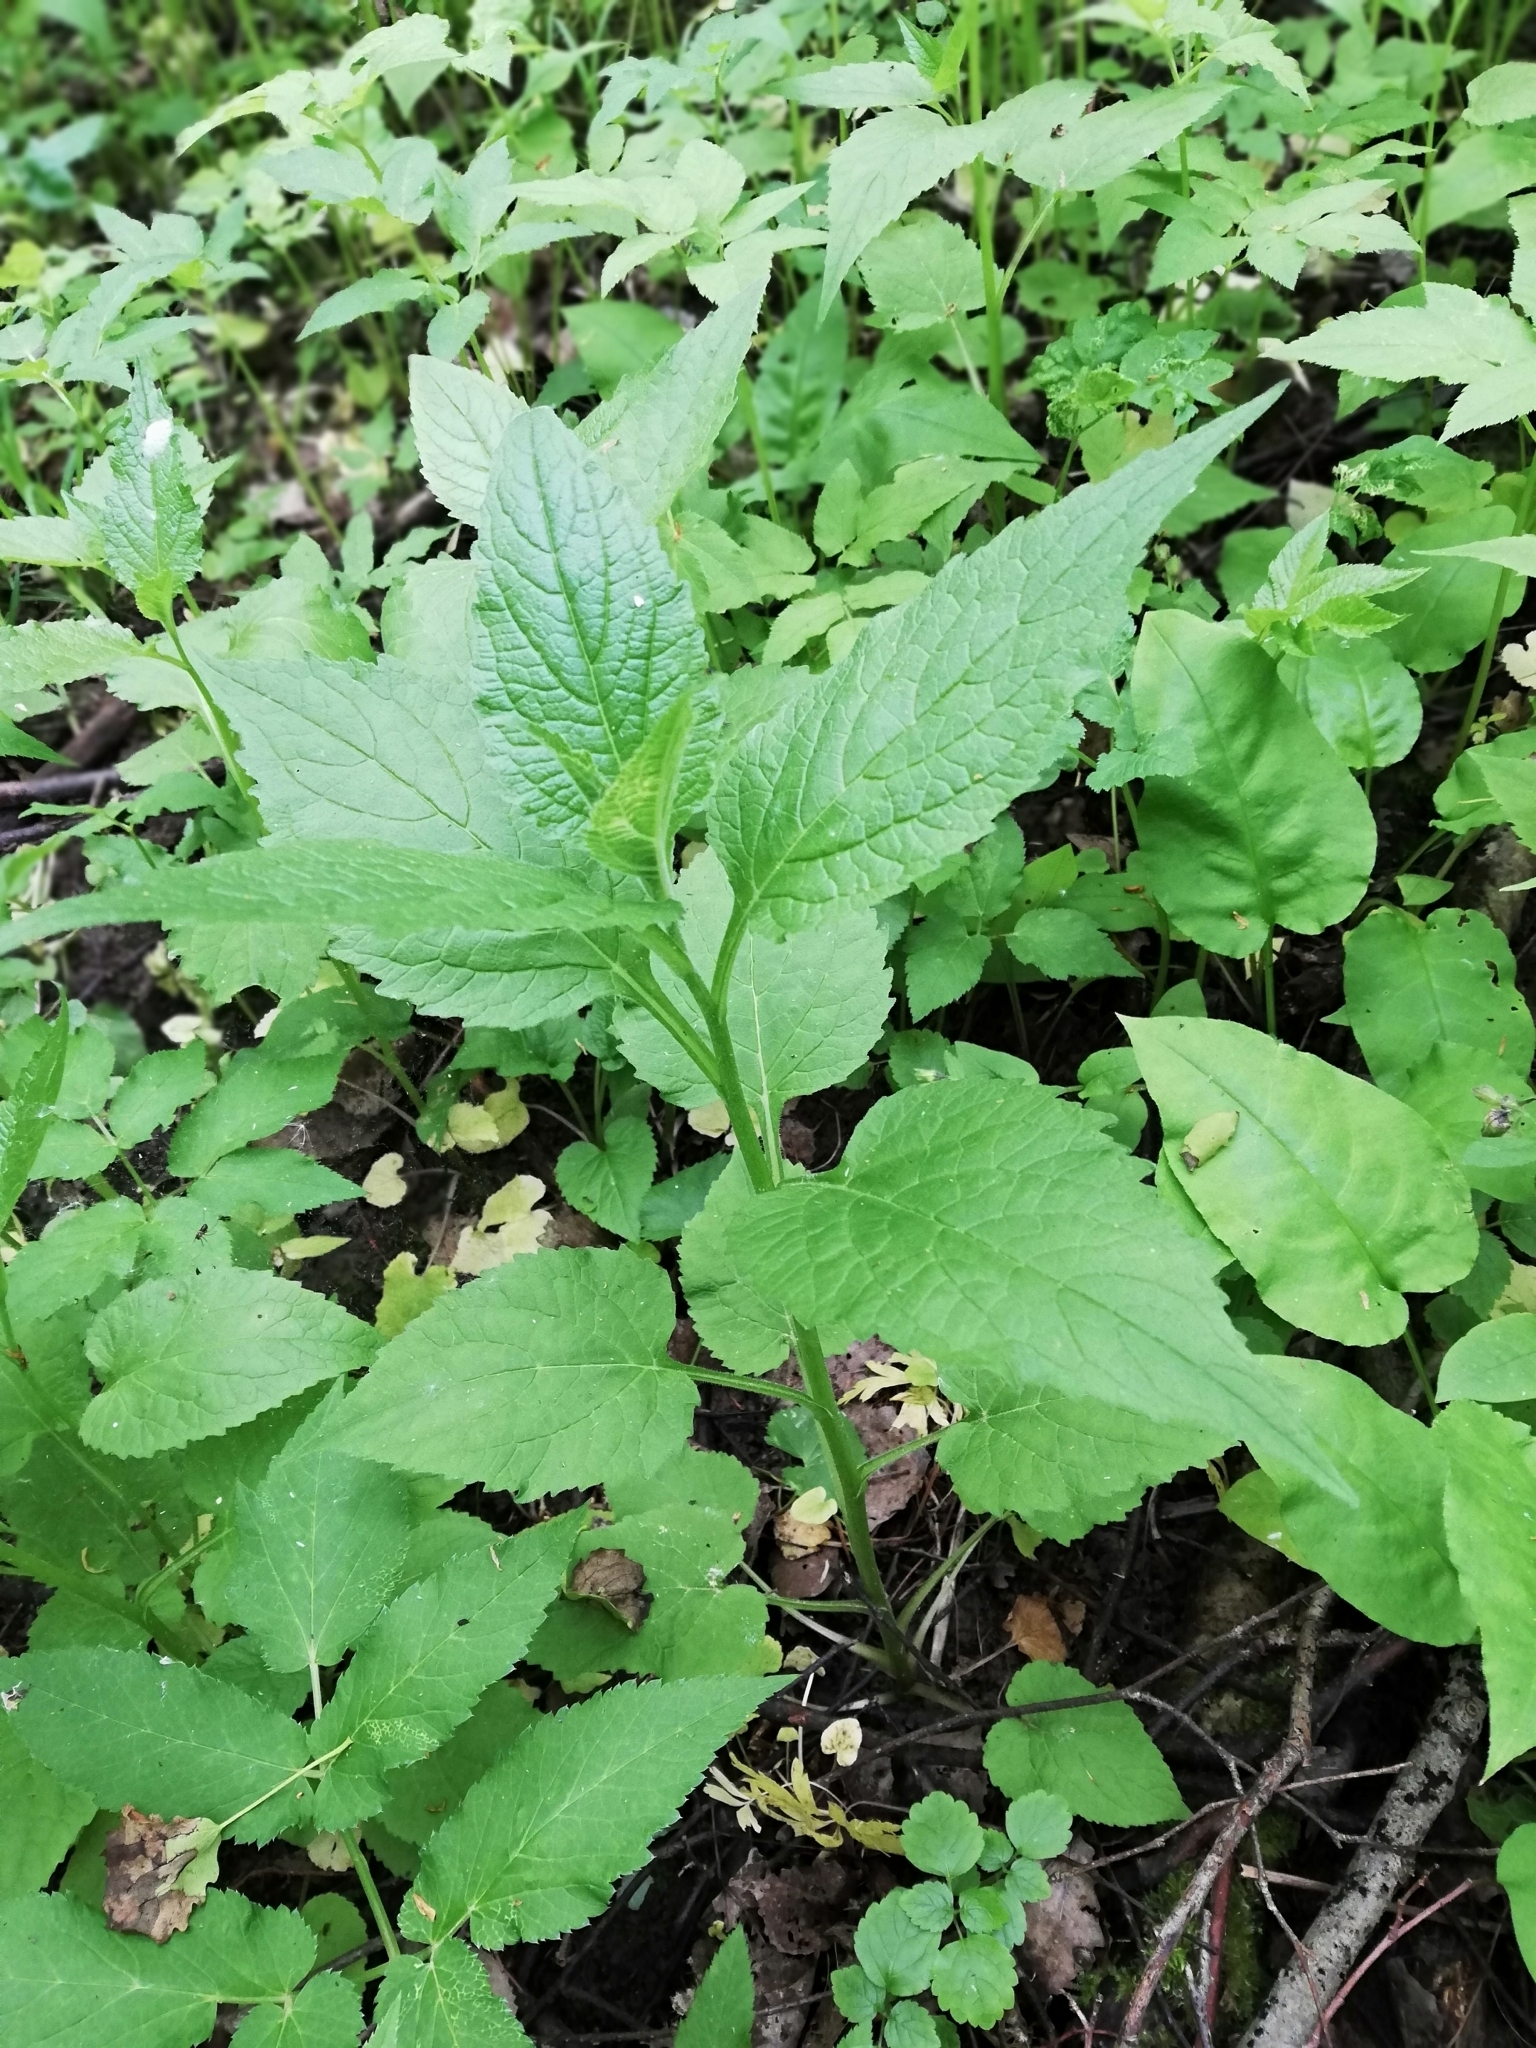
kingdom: Plantae
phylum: Tracheophyta
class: Magnoliopsida
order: Asterales
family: Campanulaceae
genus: Campanula
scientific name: Campanula latifolia
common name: Giant bellflower
